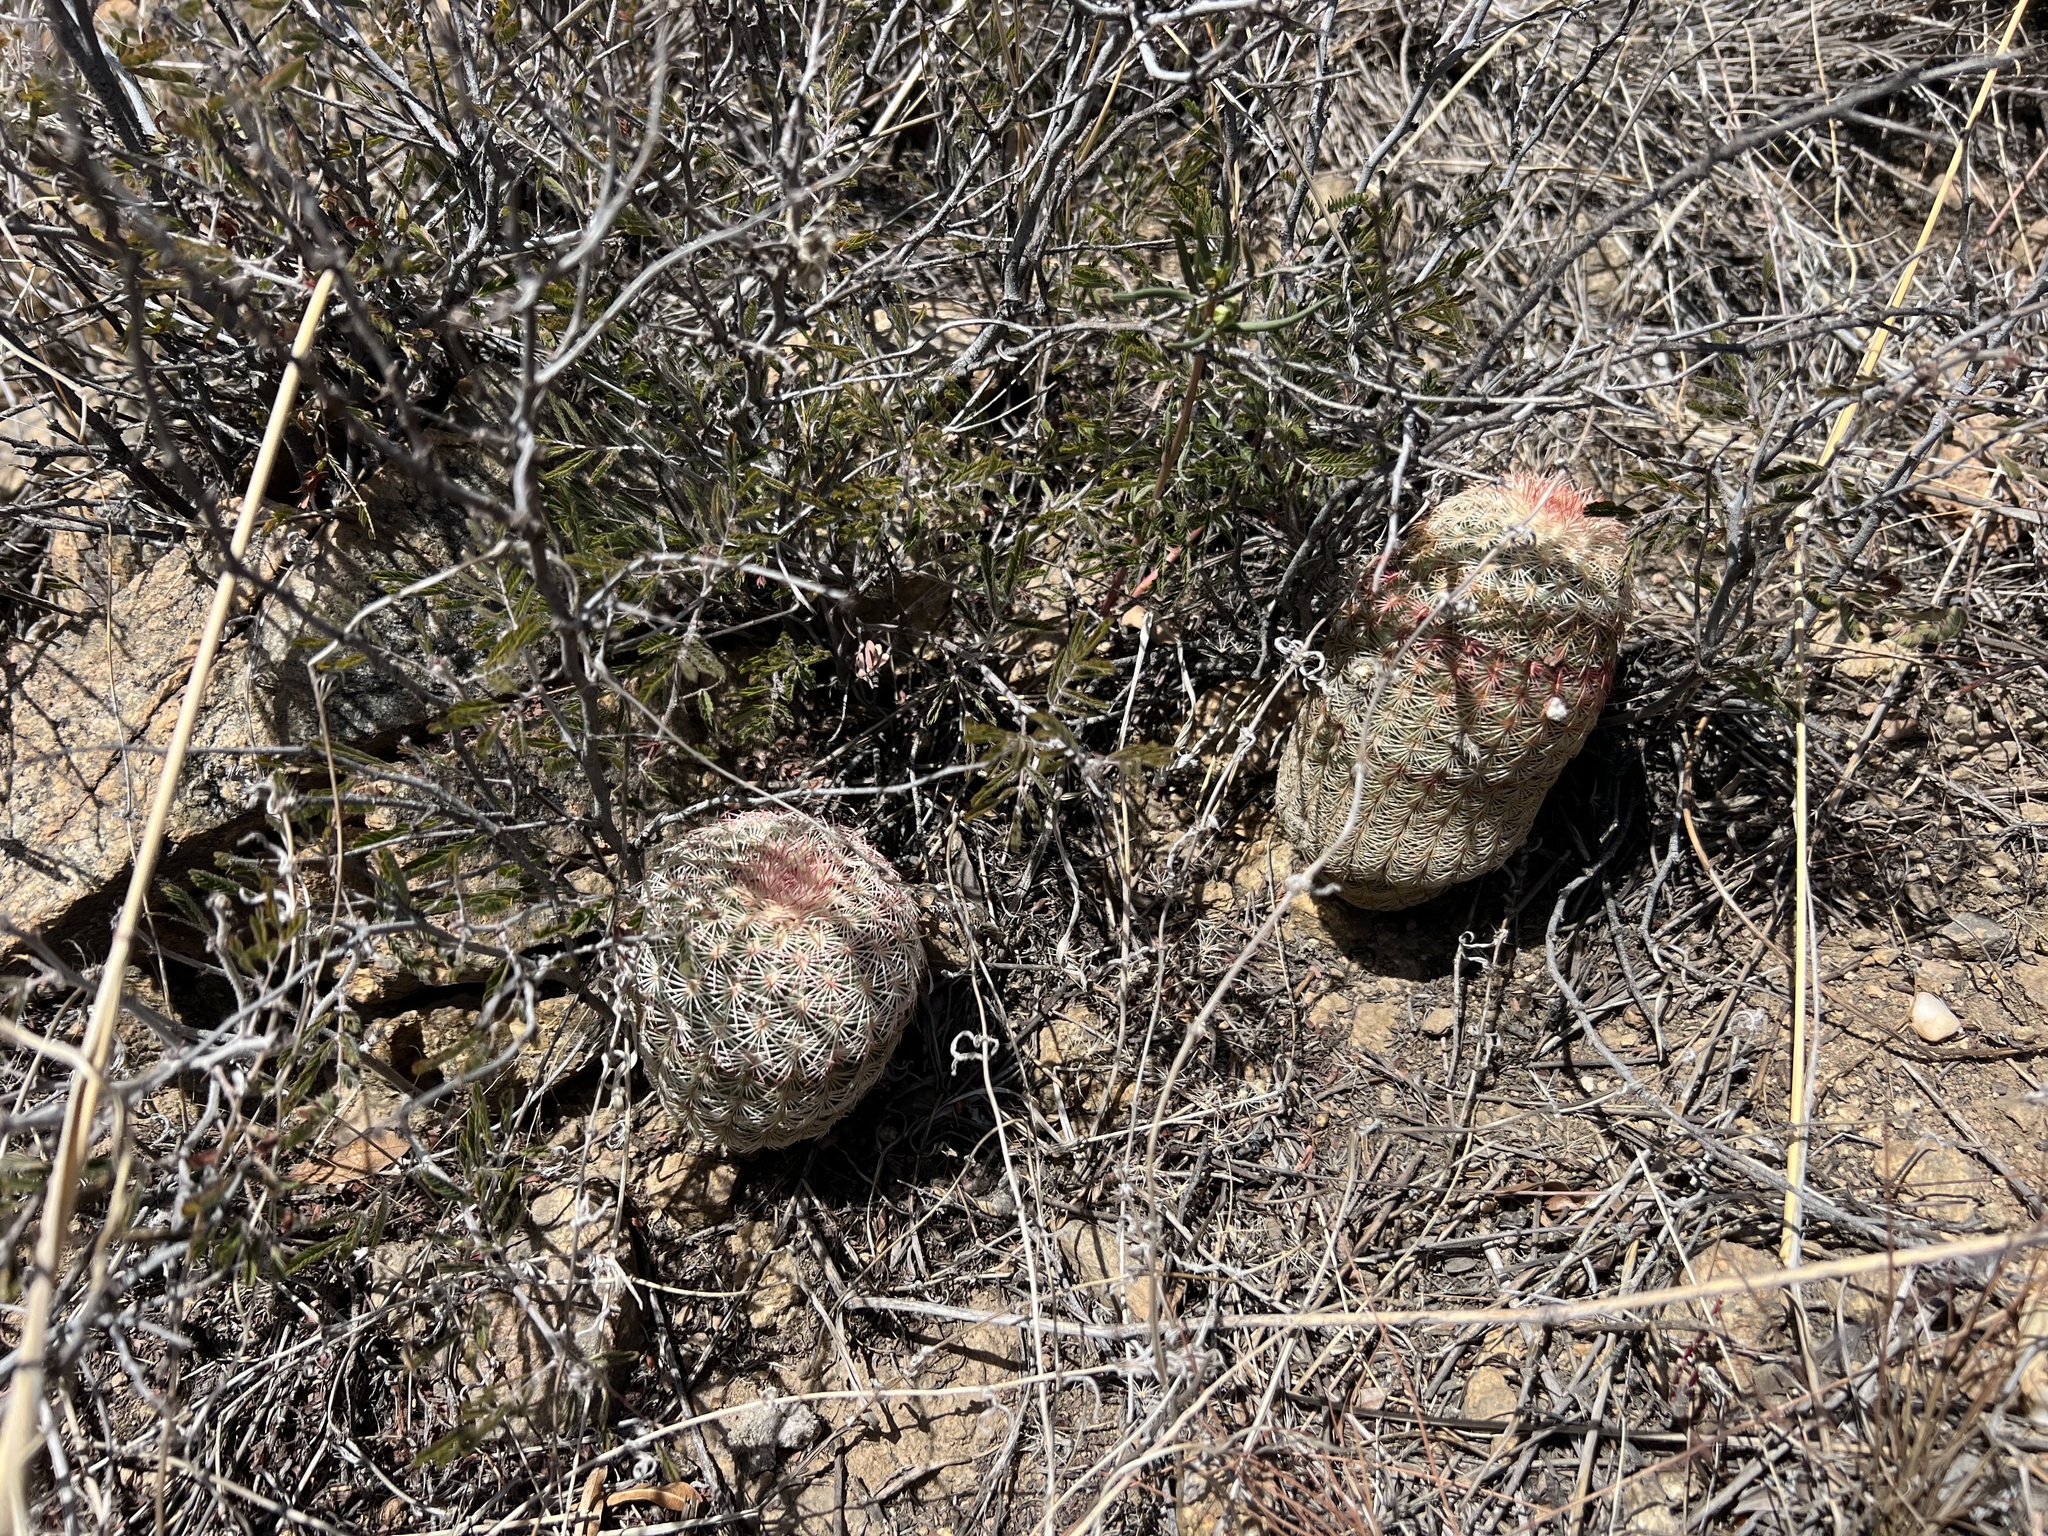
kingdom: Plantae
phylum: Tracheophyta
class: Magnoliopsida
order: Caryophyllales
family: Cactaceae
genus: Echinocereus
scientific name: Echinocereus rigidissimus
